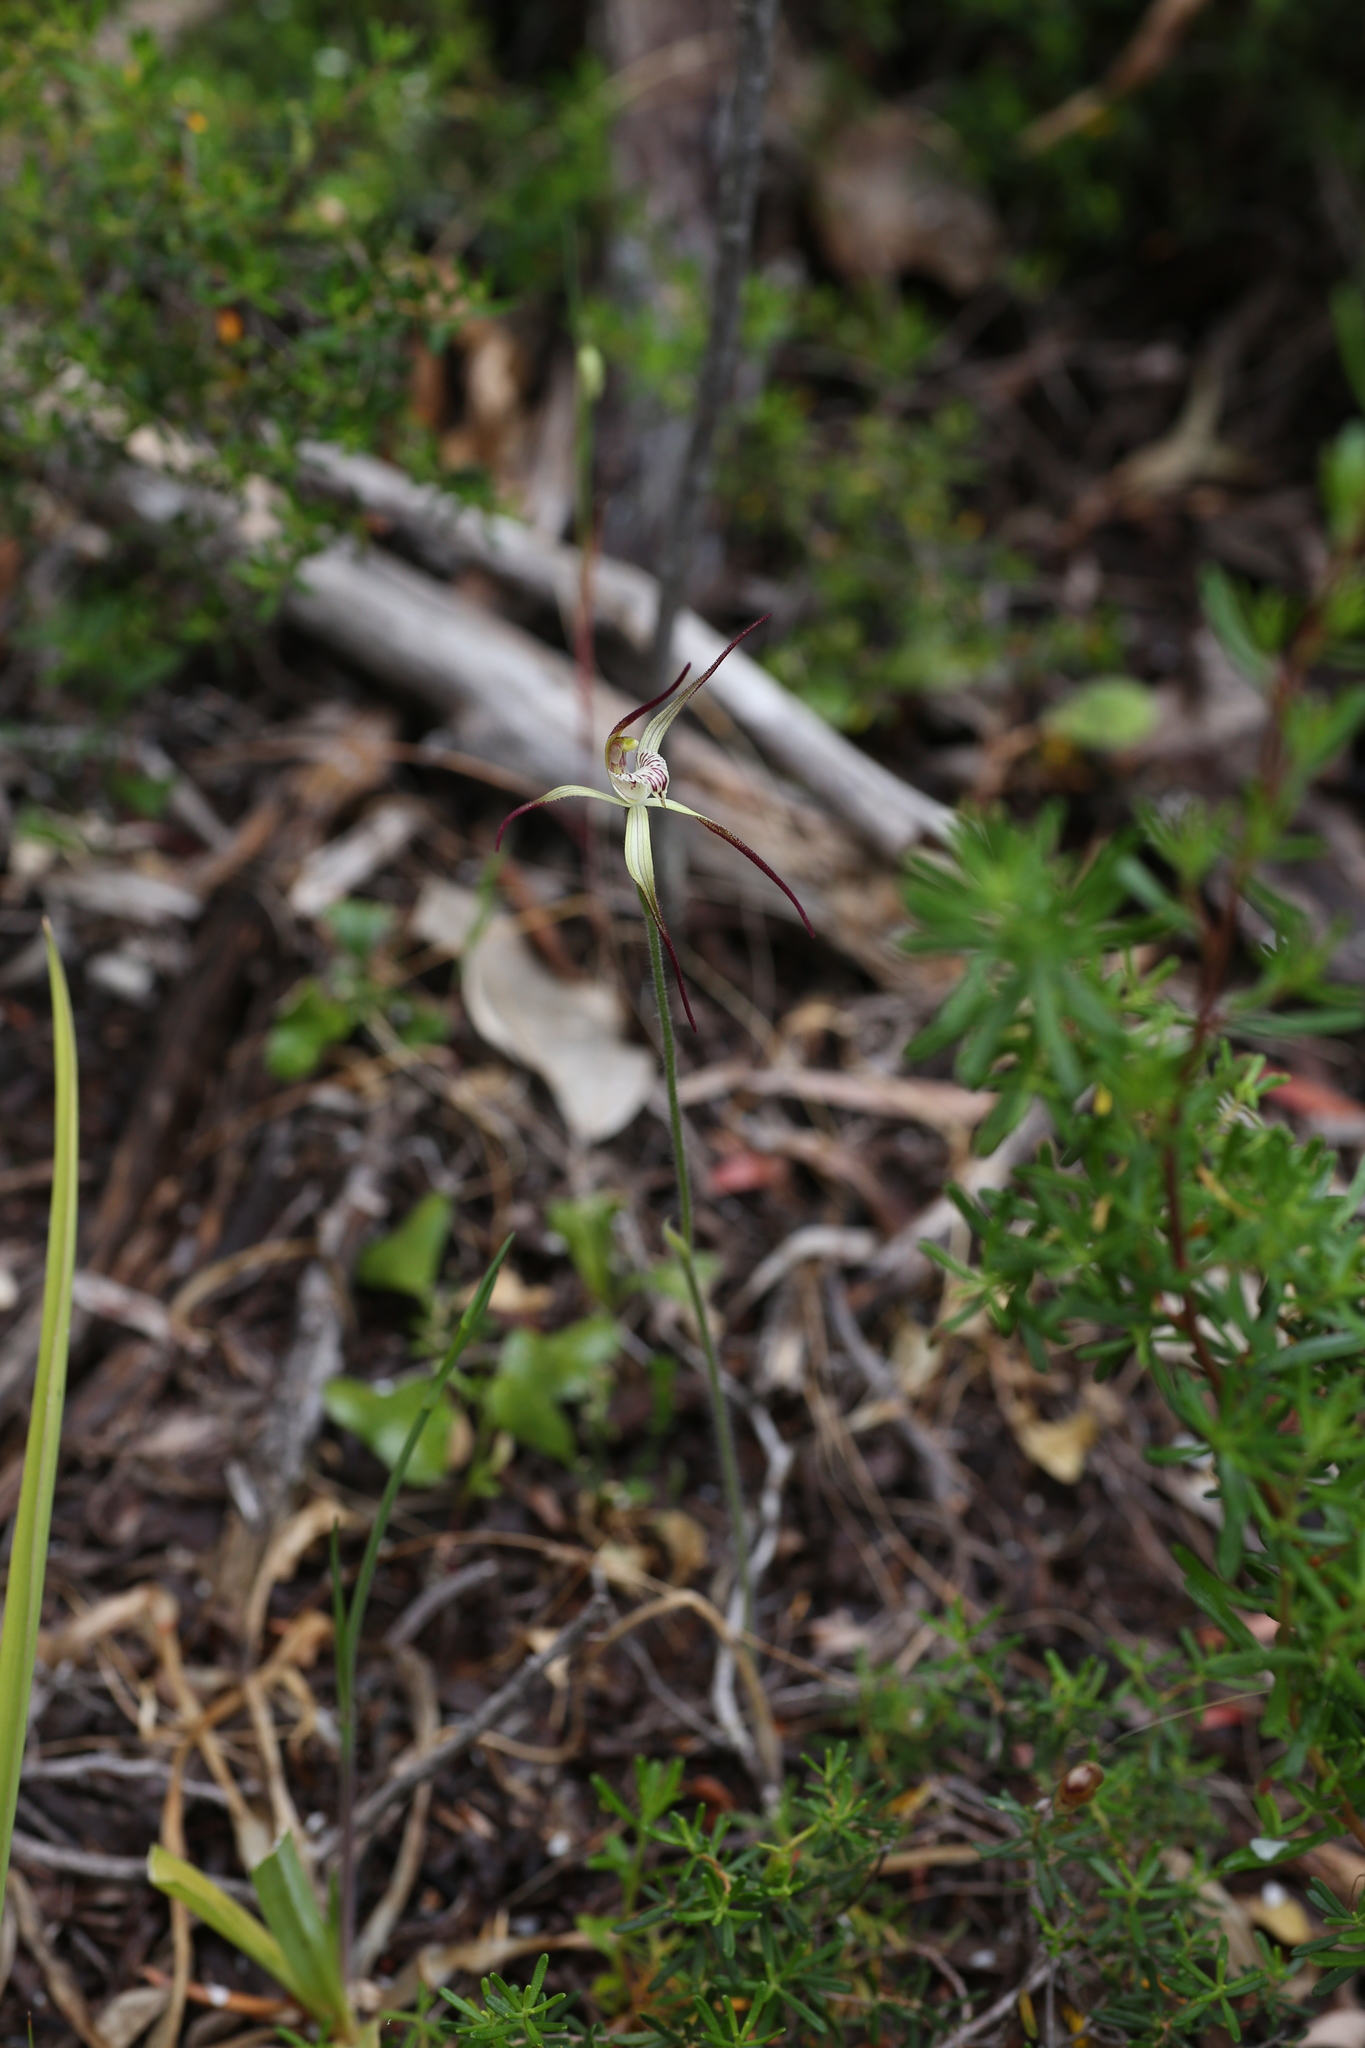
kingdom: Plantae
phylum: Tracheophyta
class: Liliopsida
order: Asparagales
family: Orchidaceae
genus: Caladenia
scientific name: Caladenia abbreviata
